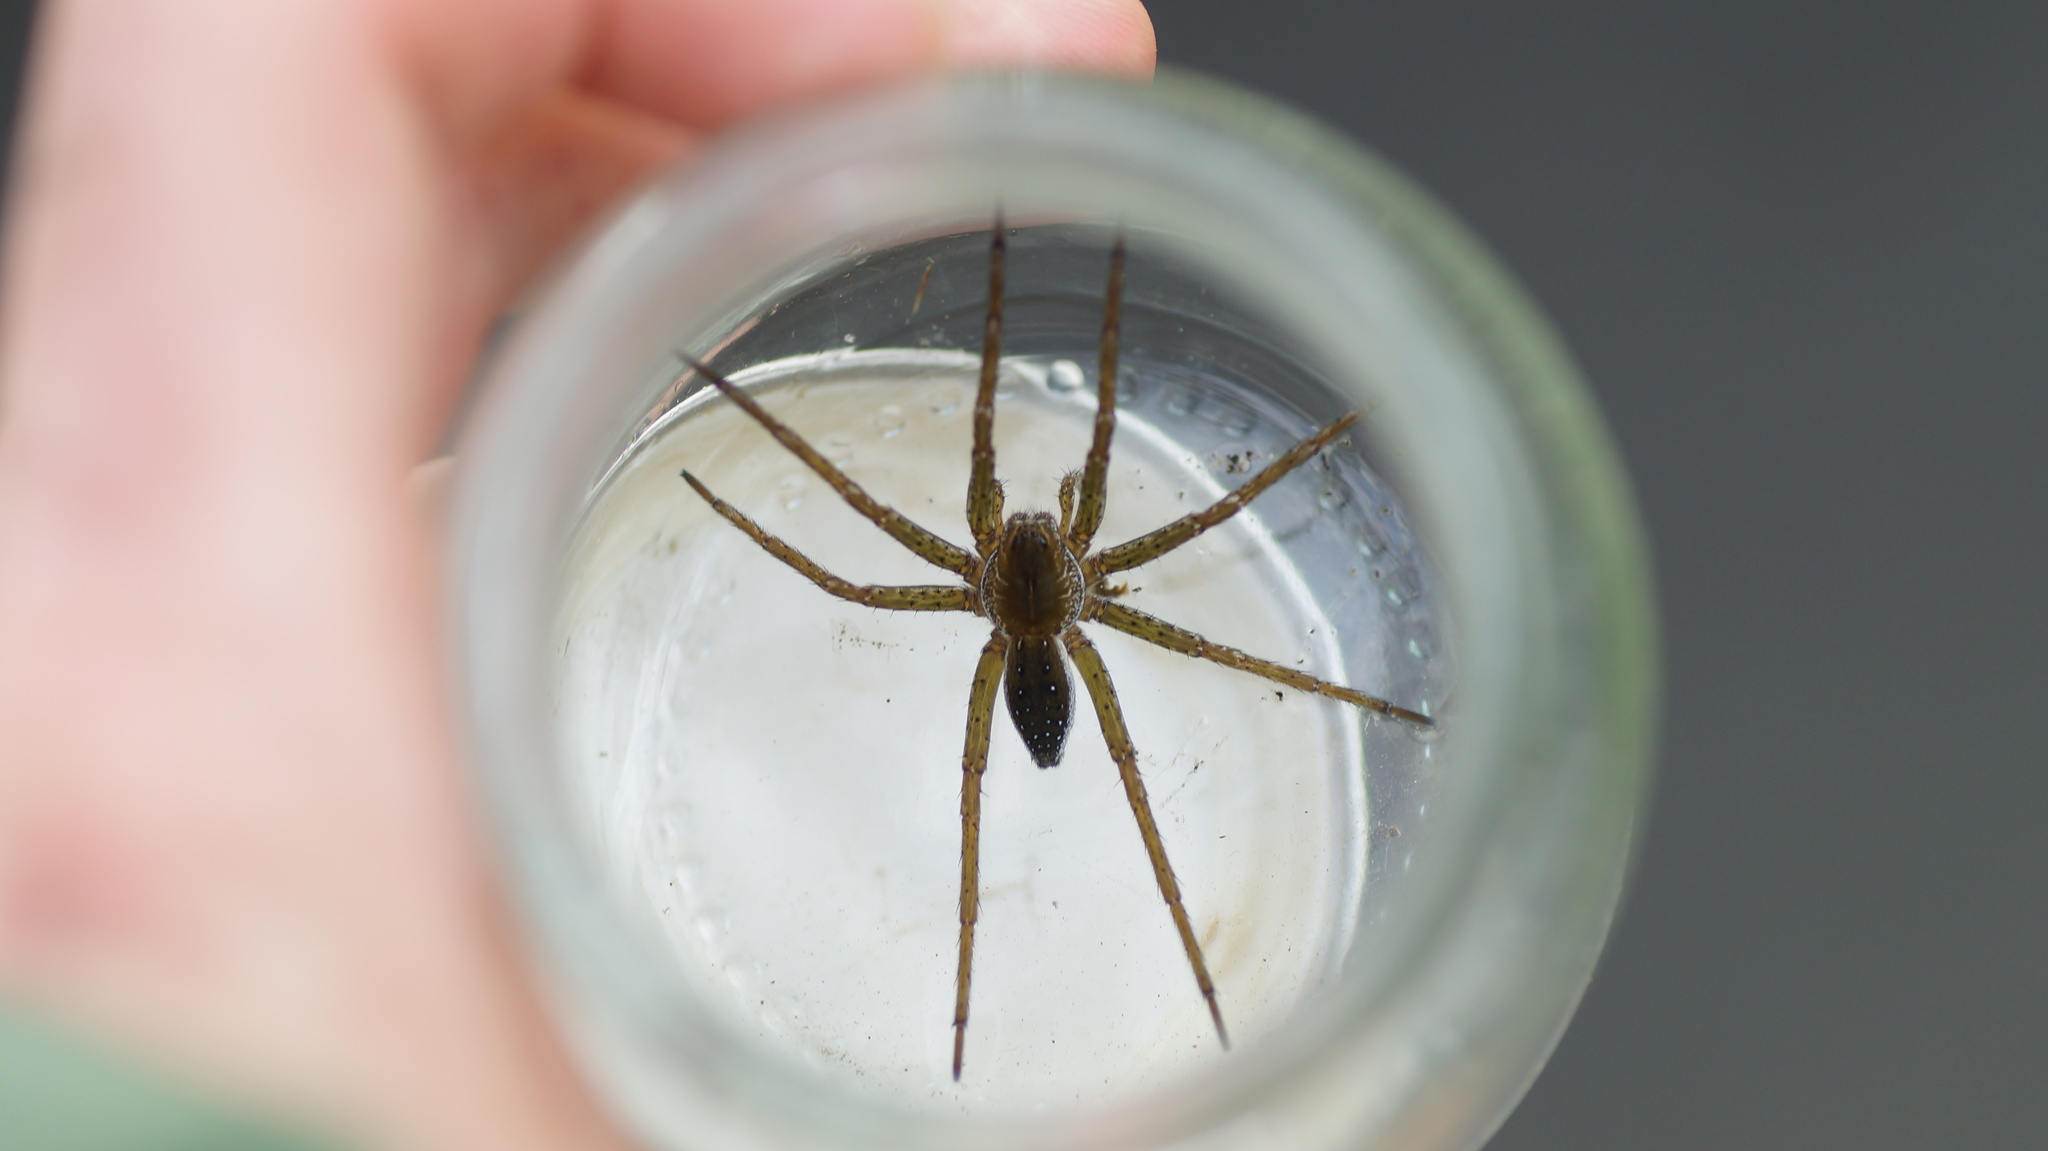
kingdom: Animalia
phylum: Arthropoda
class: Arachnida
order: Araneae
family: Pisauridae
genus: Dolomedes
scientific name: Dolomedes
